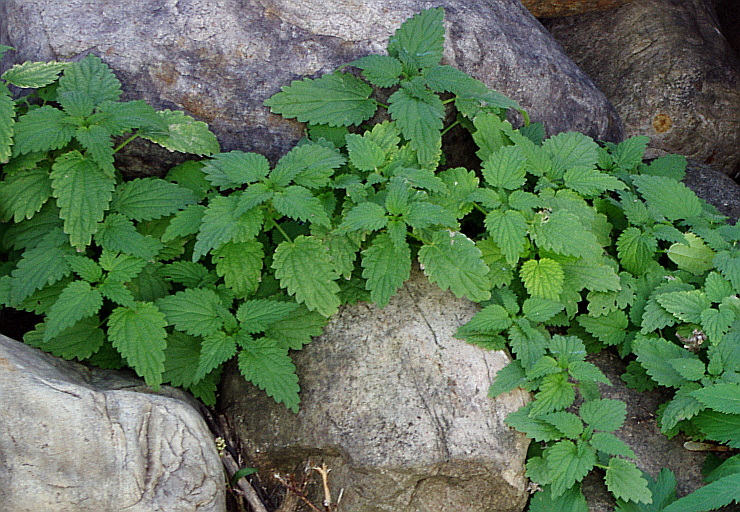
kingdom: Plantae
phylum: Tracheophyta
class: Magnoliopsida
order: Rosales
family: Urticaceae
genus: Urtica
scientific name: Urtica dioica
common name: Common nettle
